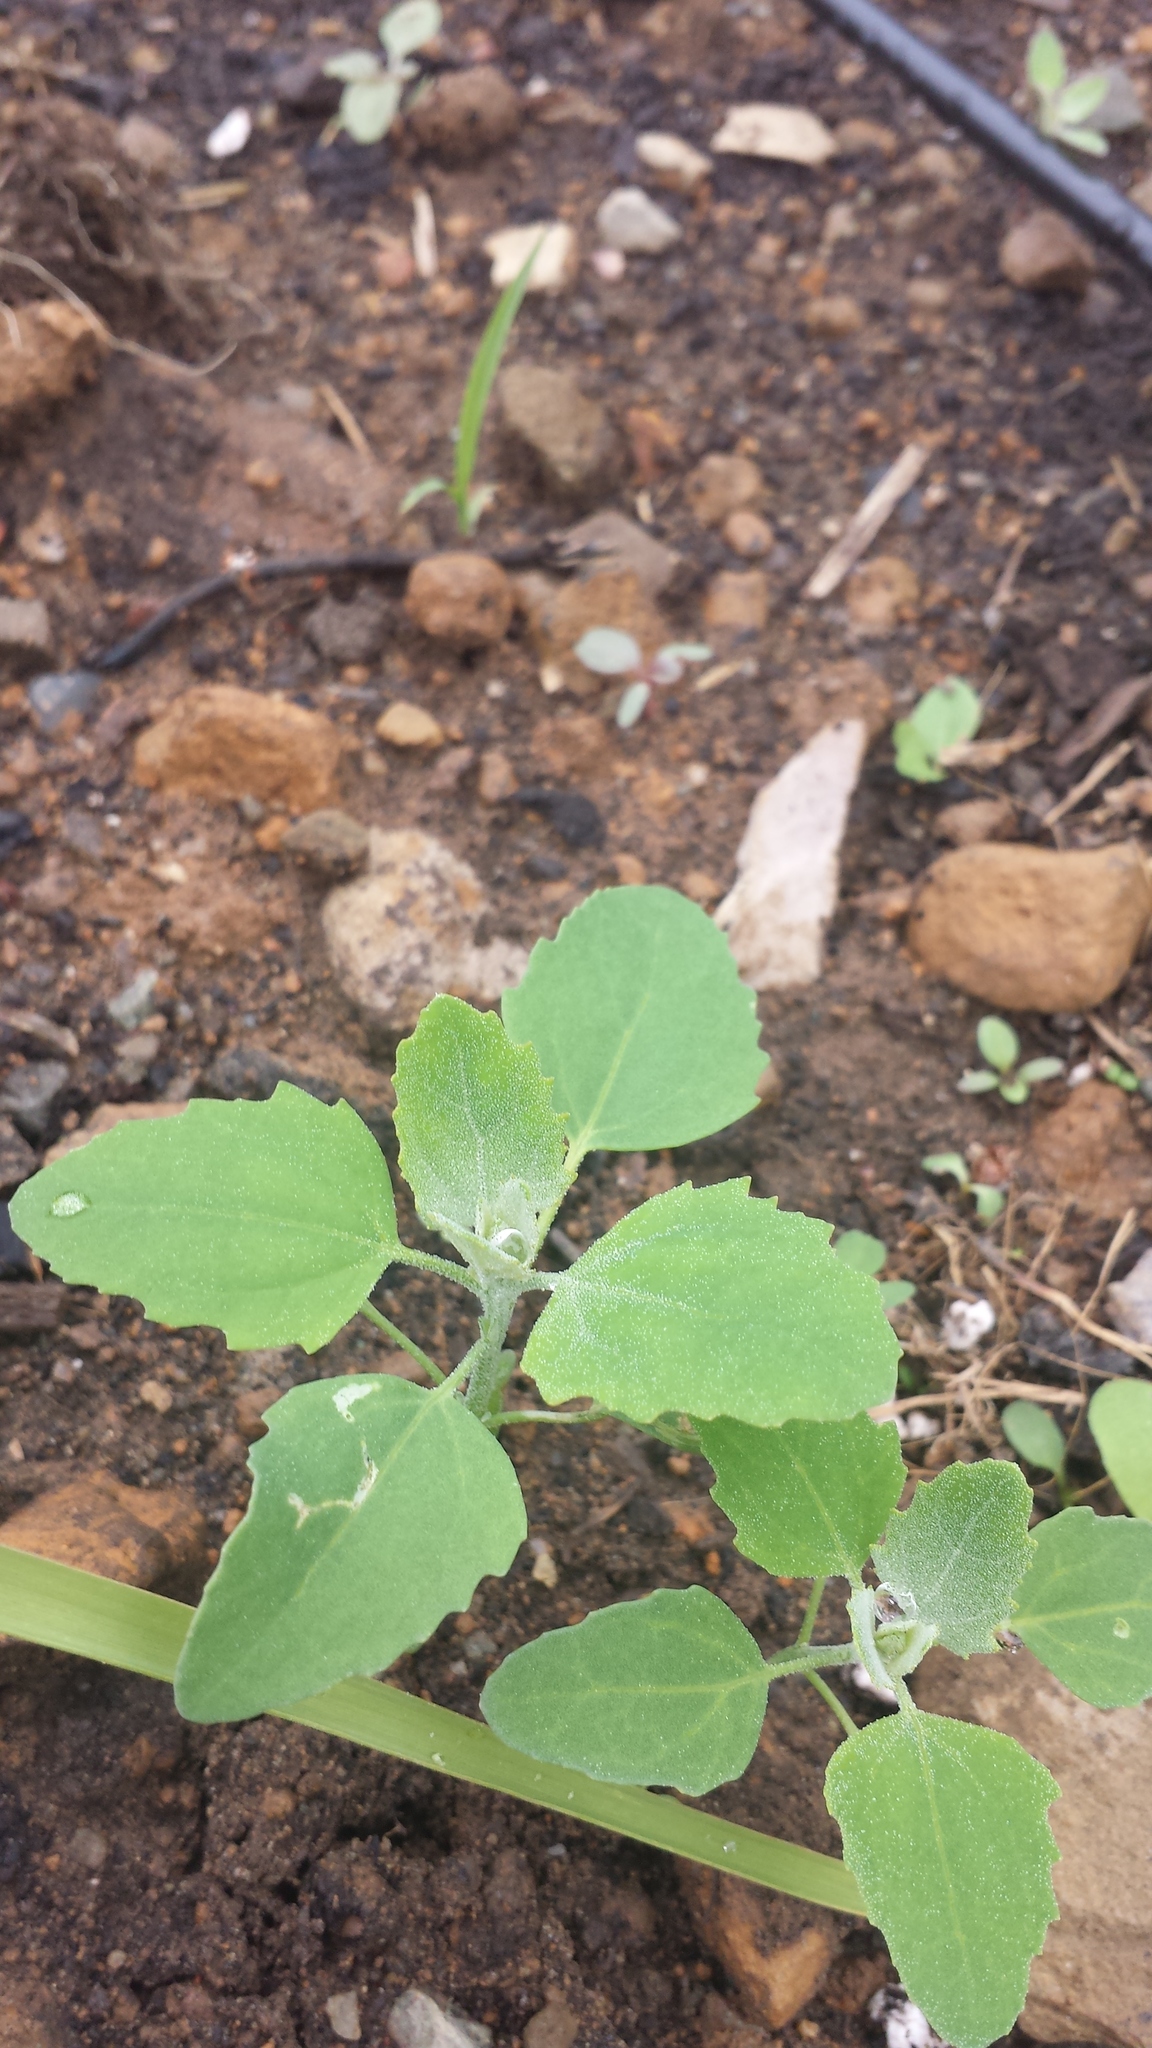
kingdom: Plantae
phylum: Tracheophyta
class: Magnoliopsida
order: Caryophyllales
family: Amaranthaceae
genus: Chenopodium
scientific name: Chenopodium album
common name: Fat-hen
